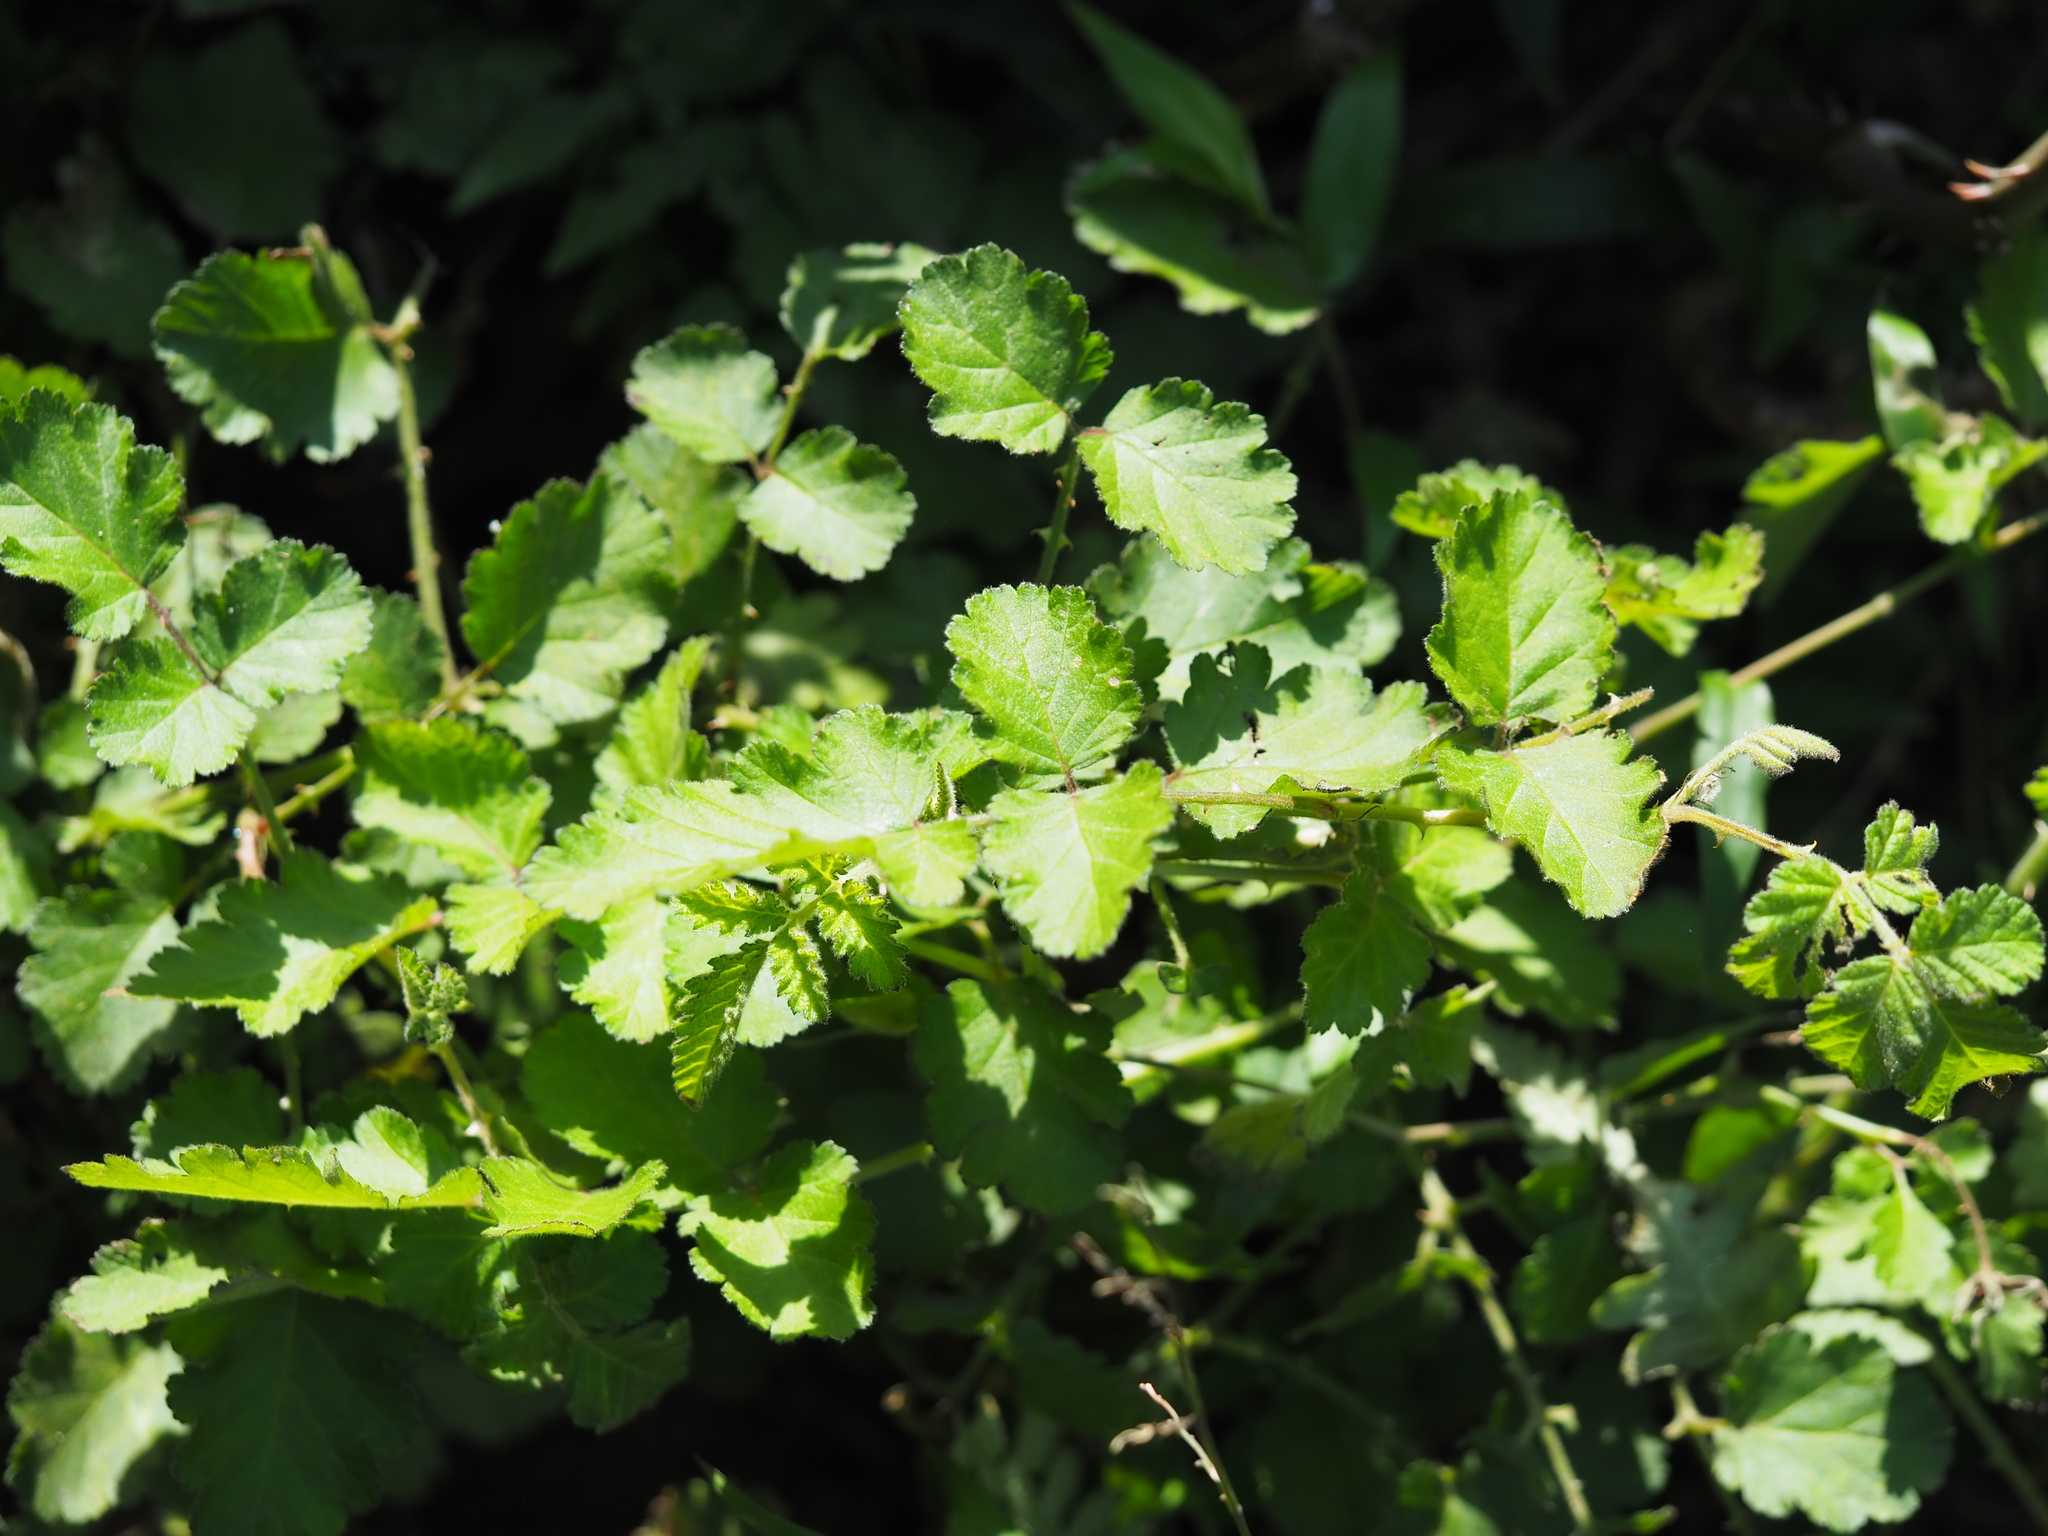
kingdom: Plantae
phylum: Tracheophyta
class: Magnoliopsida
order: Rosales
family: Rosaceae
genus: Rubus
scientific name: Rubus rosifolius
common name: Roseleaf raspberry
